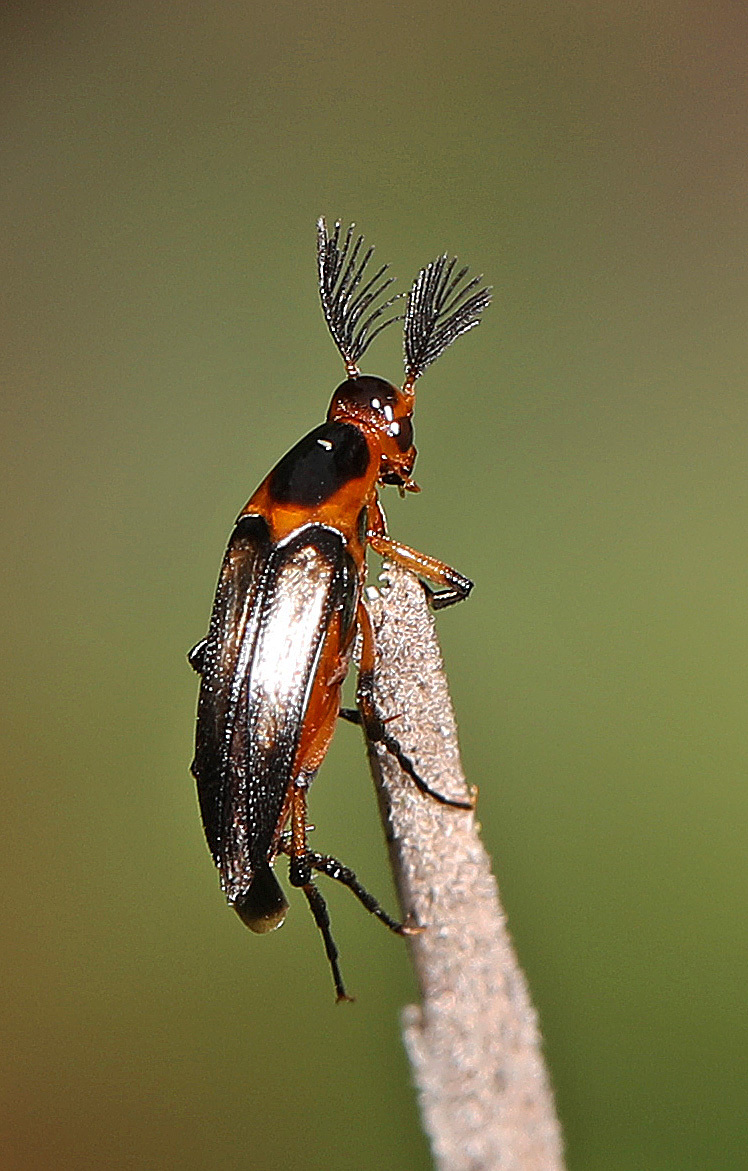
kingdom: Animalia
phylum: Arthropoda
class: Insecta
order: Coleoptera
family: Ripiphoridae
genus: Macrosiagon
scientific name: Macrosiagon limbatum
